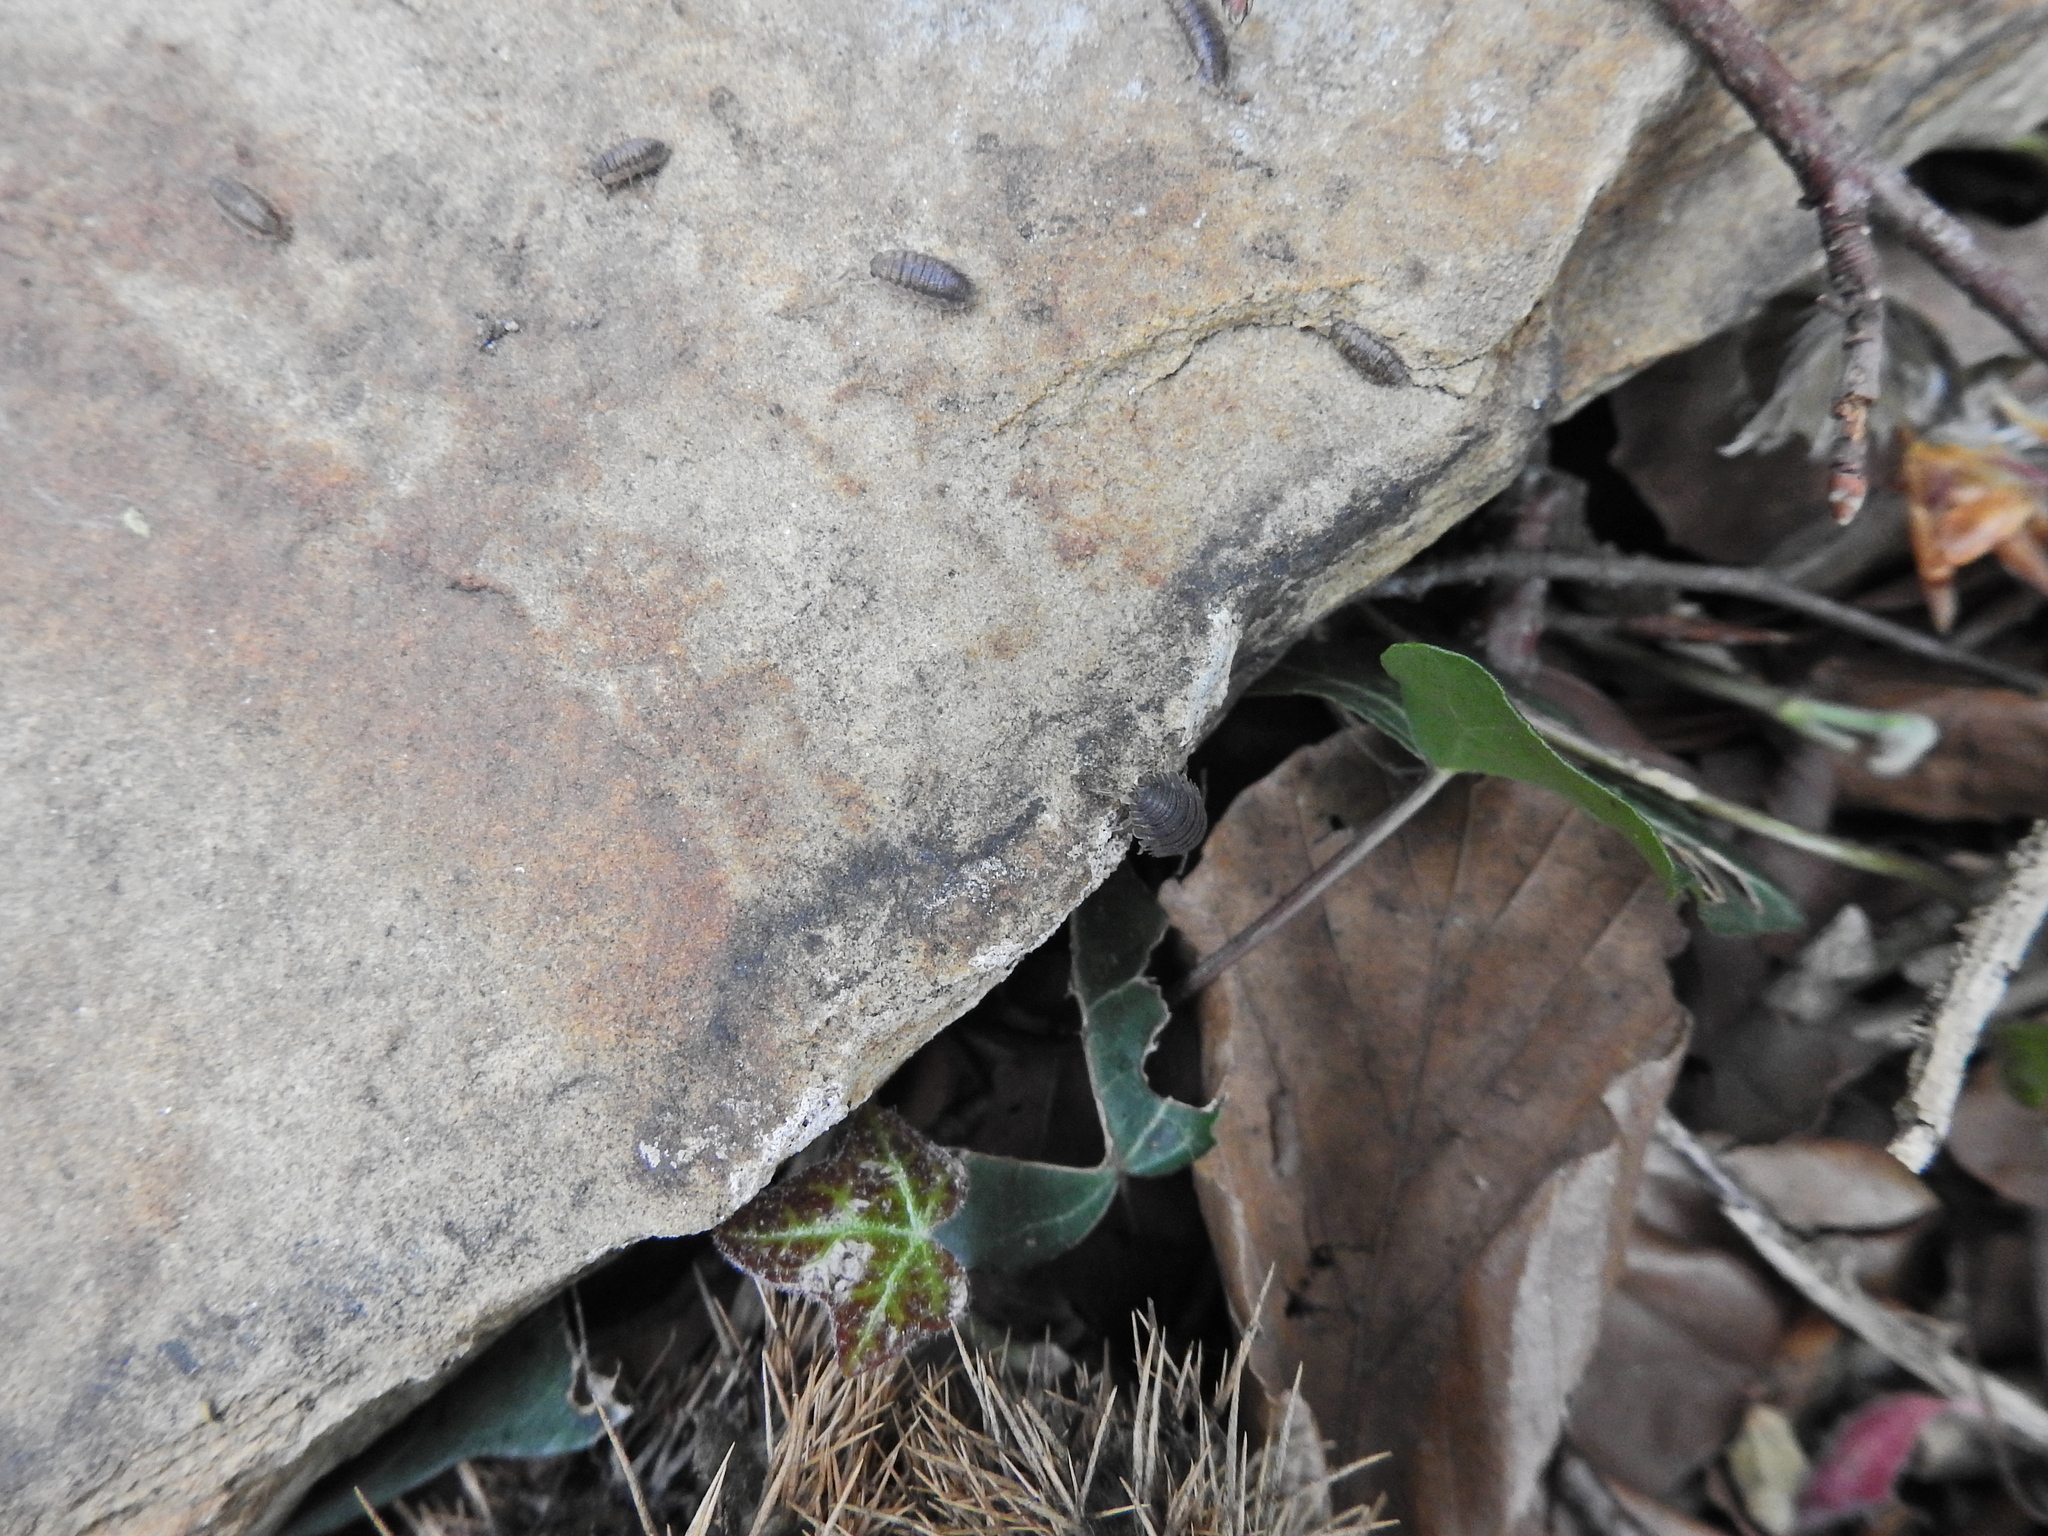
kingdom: Animalia
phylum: Arthropoda
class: Malacostraca
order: Isopoda
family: Porcellionidae
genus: Porcellio
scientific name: Porcellio scaber
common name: Common rough woodlouse
